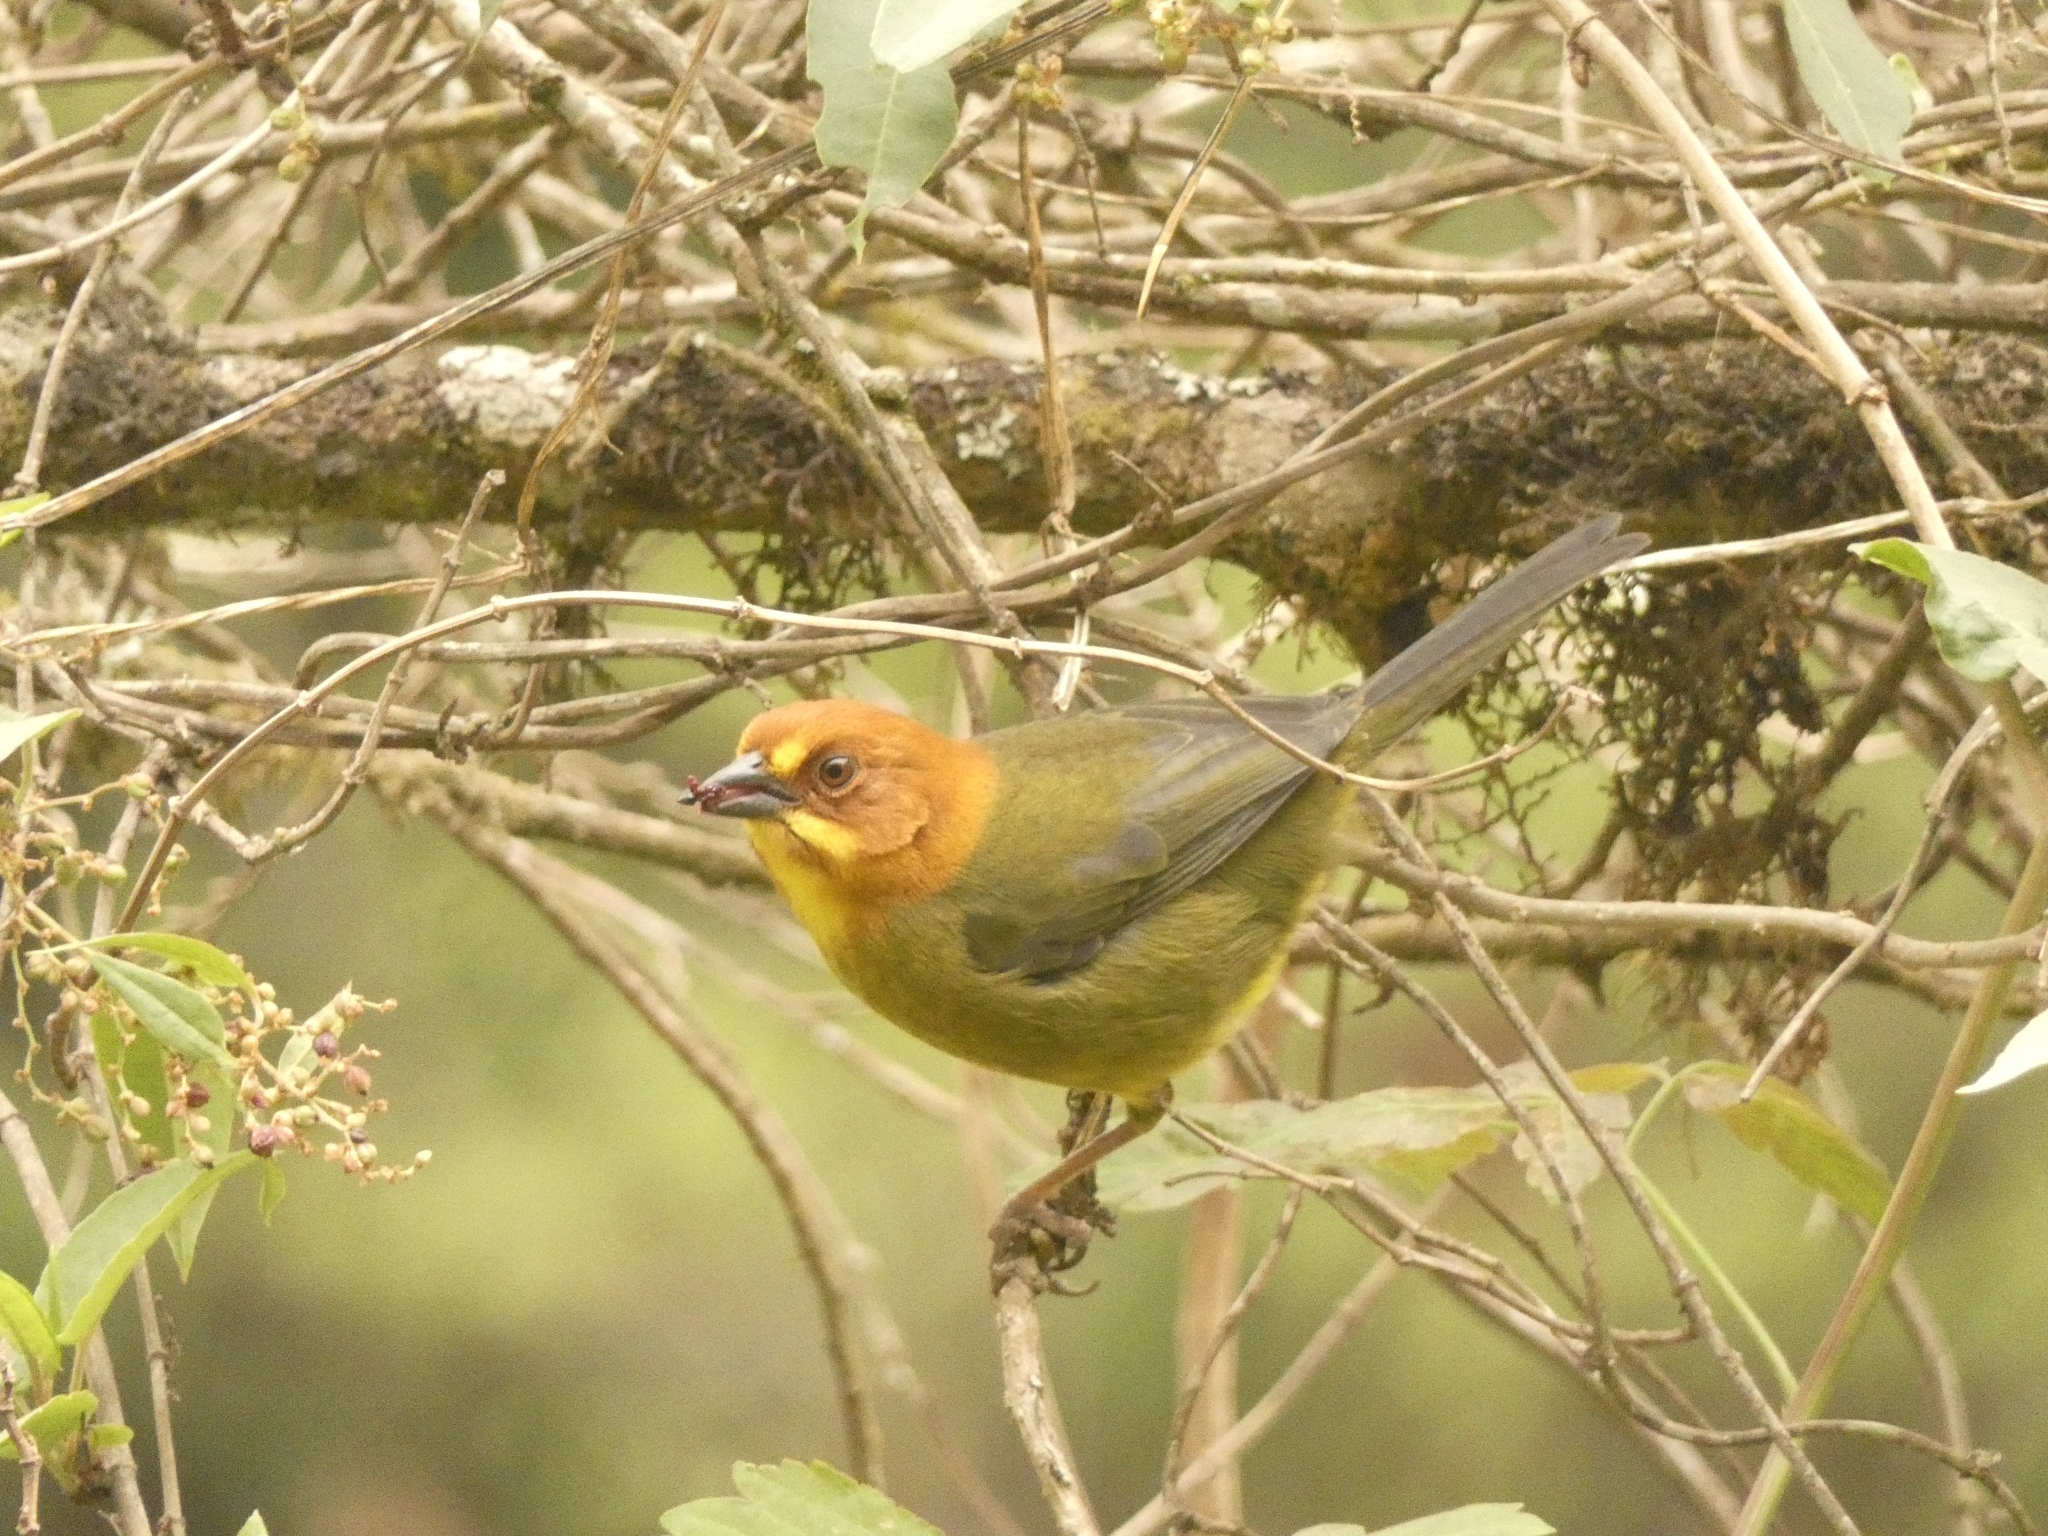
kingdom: Animalia
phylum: Chordata
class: Aves
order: Passeriformes
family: Passerellidae
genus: Atlapetes
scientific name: Atlapetes fulviceps
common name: Fulvous-headed brushfinch
